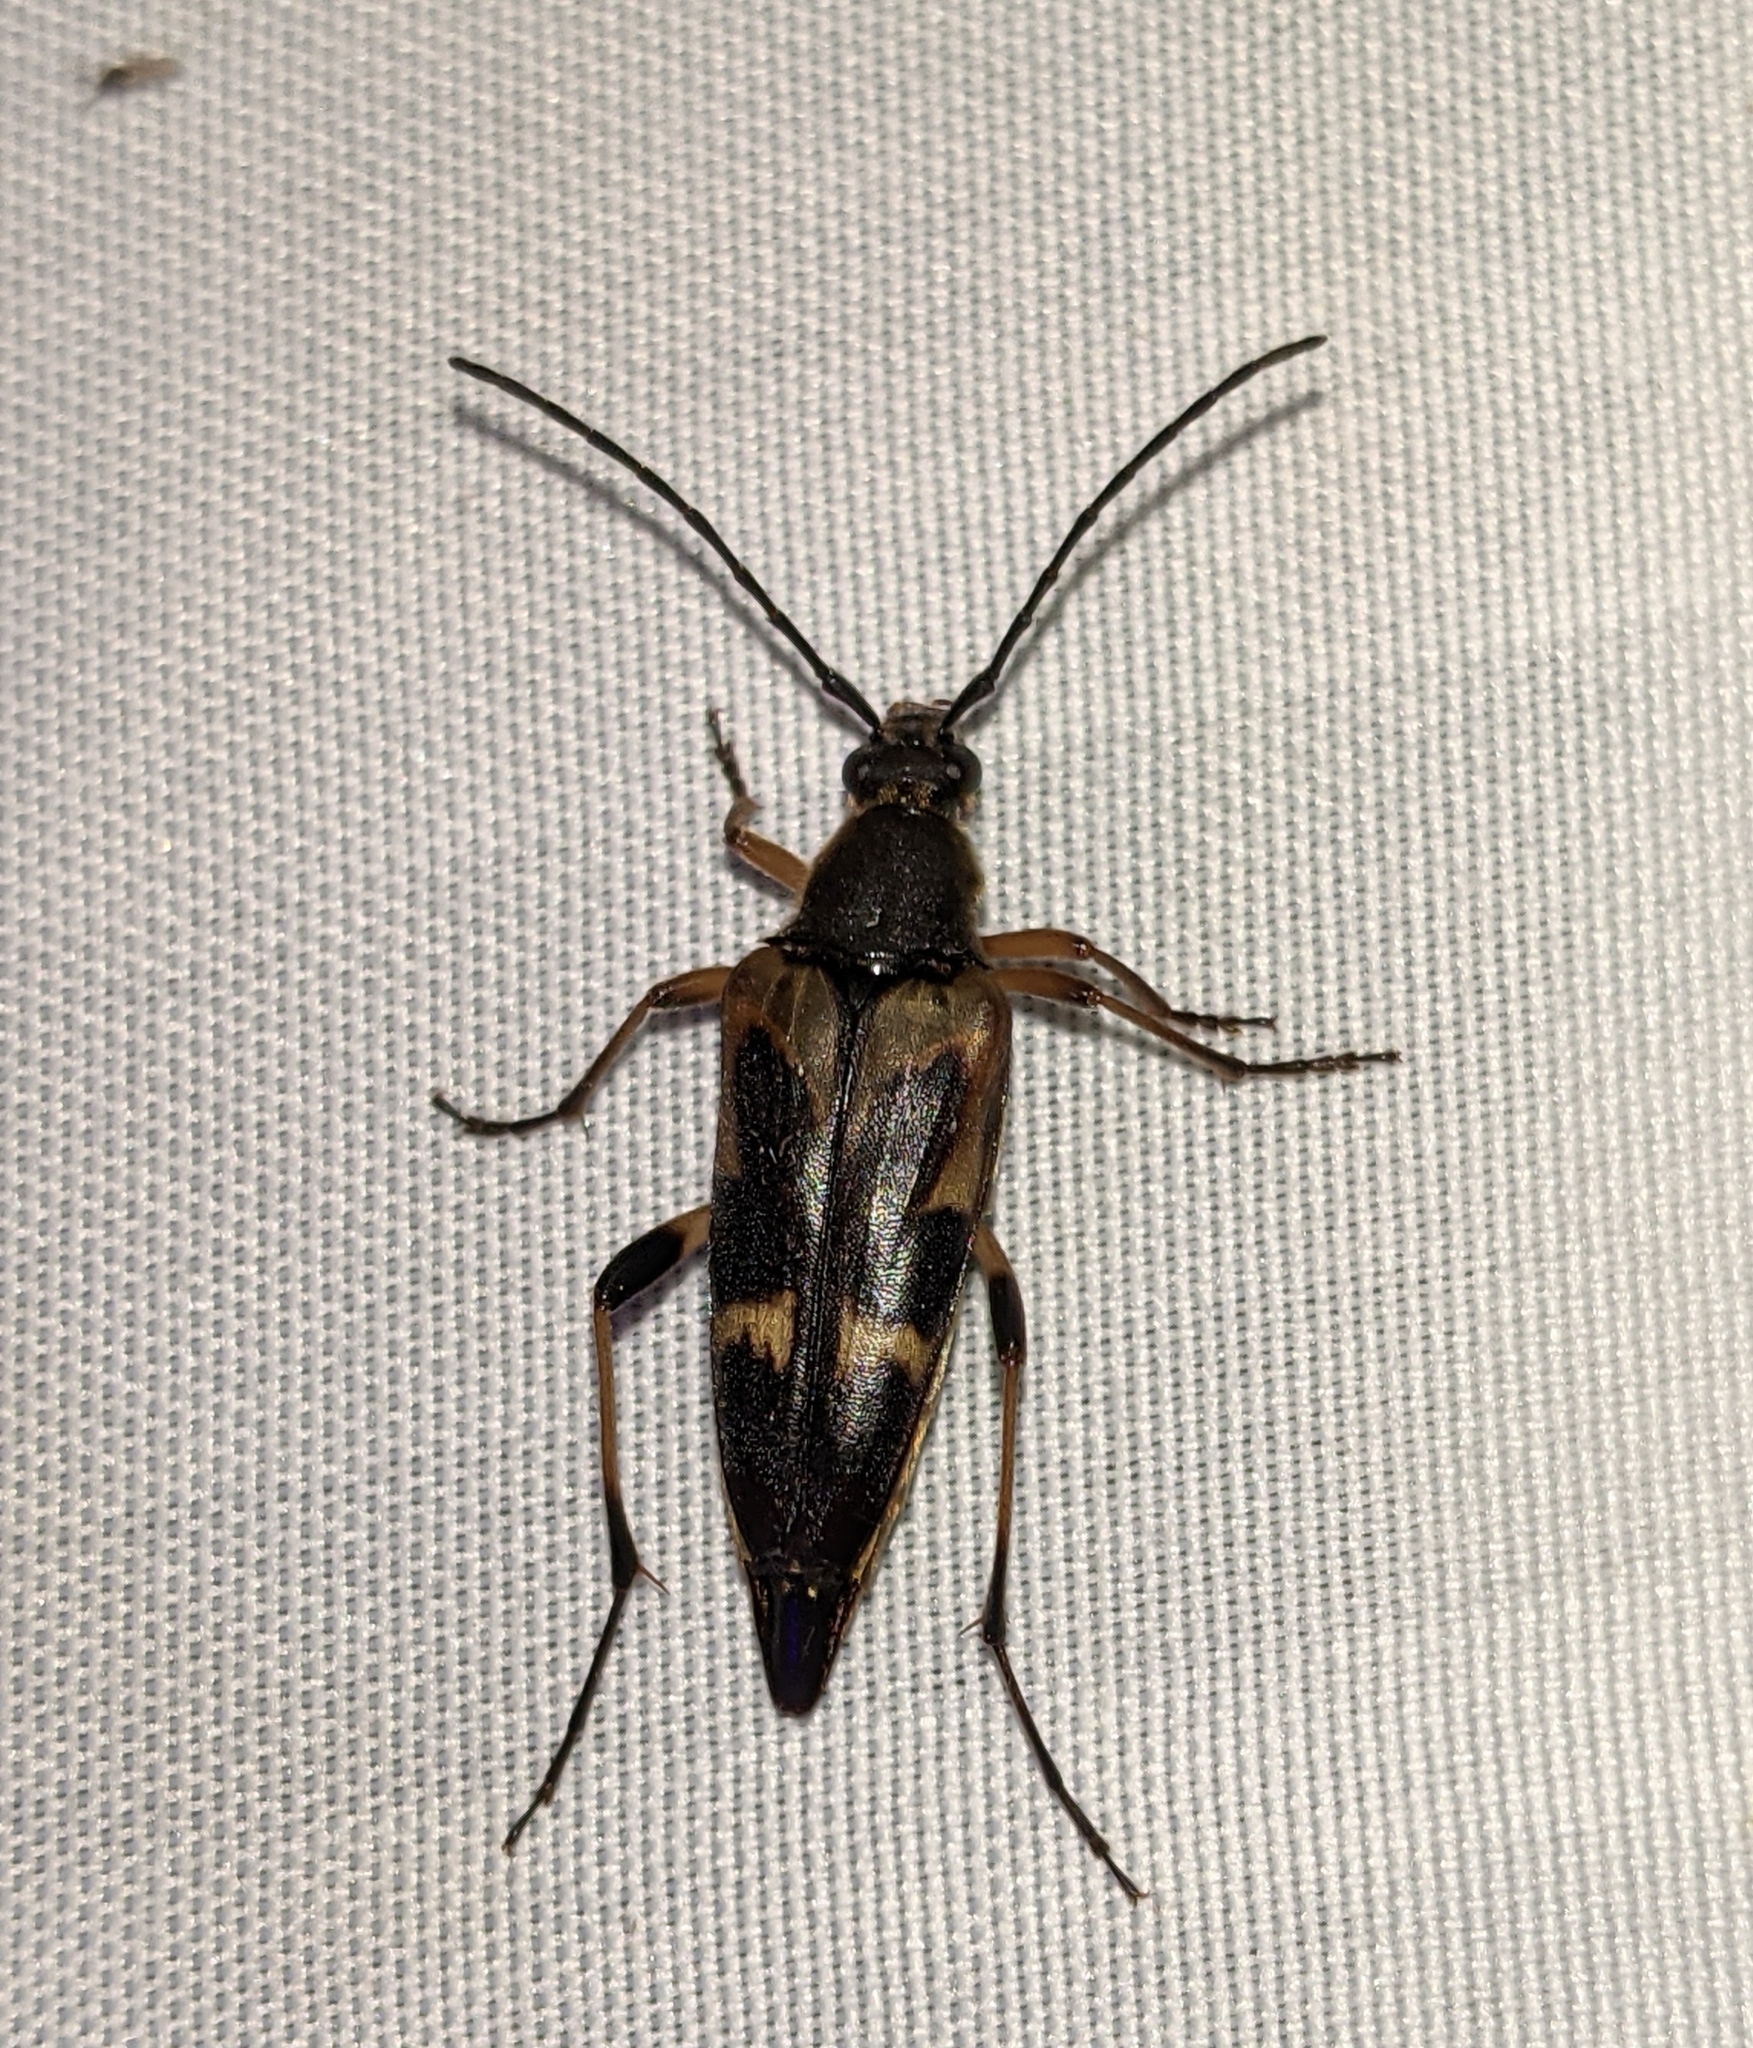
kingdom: Animalia
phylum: Arthropoda
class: Insecta
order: Coleoptera
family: Cerambycidae
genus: Etorofus
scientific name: Etorofus obliteratus
